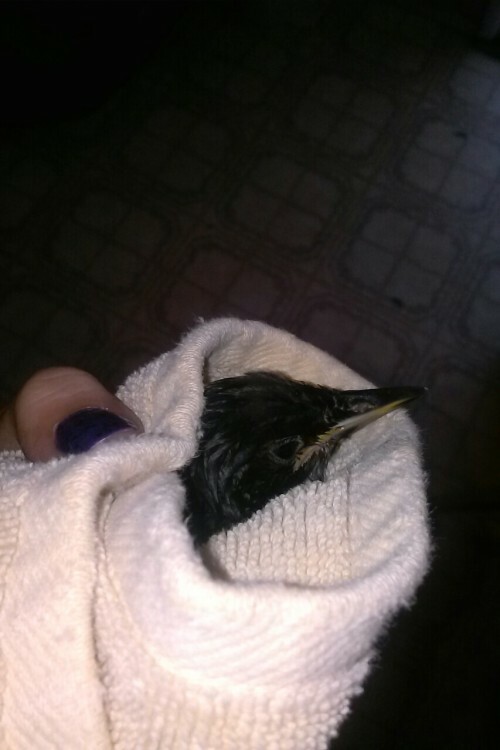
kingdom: Animalia
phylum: Chordata
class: Aves
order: Passeriformes
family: Sturnidae
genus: Sturnus
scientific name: Sturnus vulgaris
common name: Common starling
